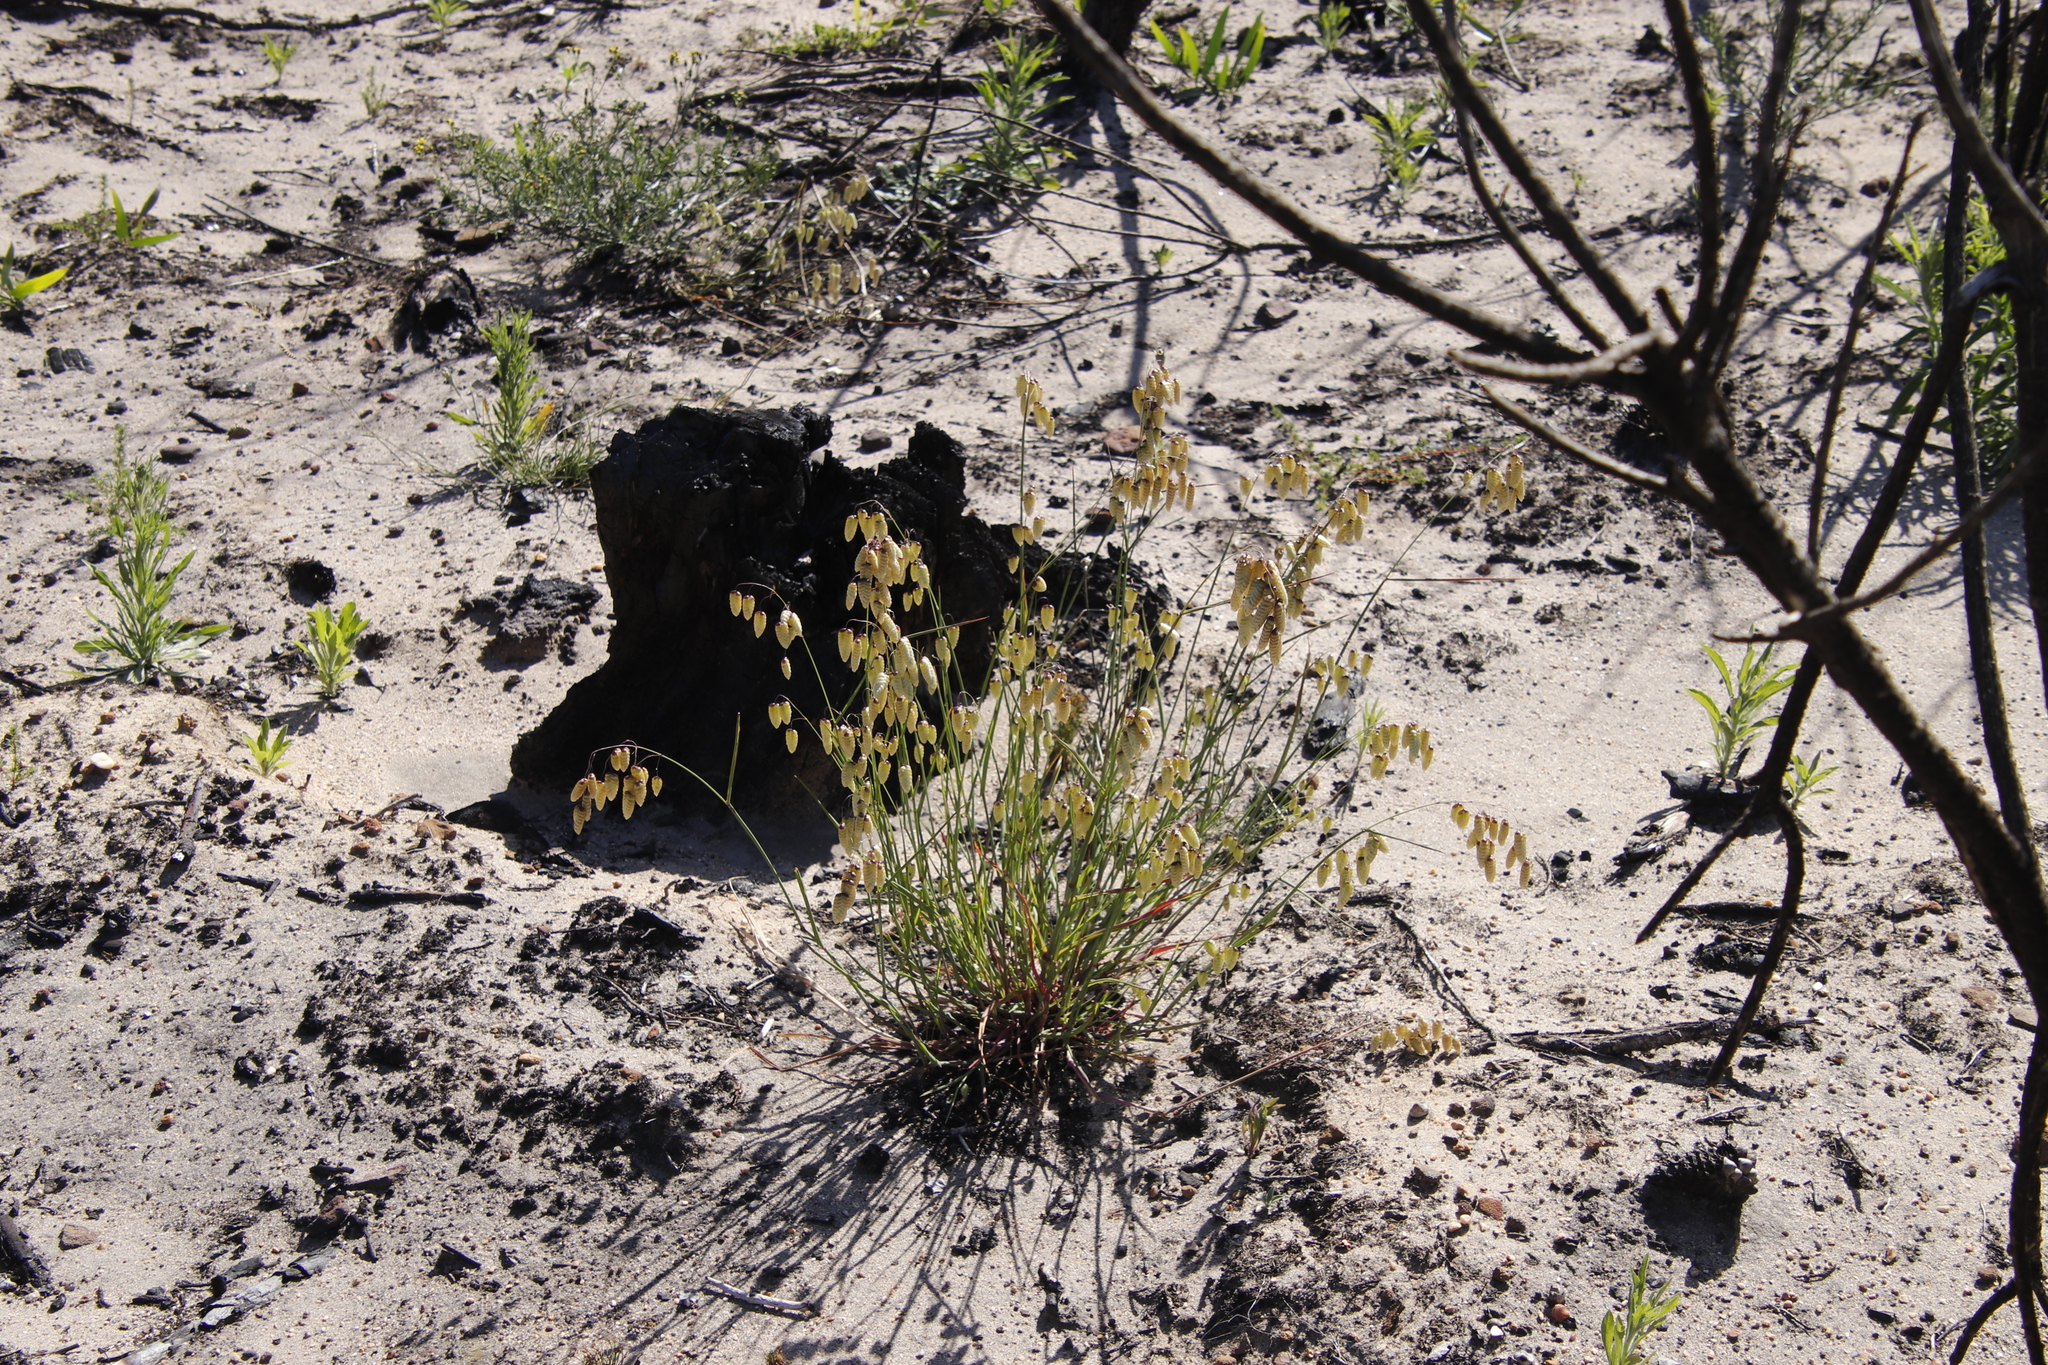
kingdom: Plantae
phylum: Tracheophyta
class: Liliopsida
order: Poales
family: Poaceae
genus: Briza
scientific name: Briza maxima
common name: Big quakinggrass
